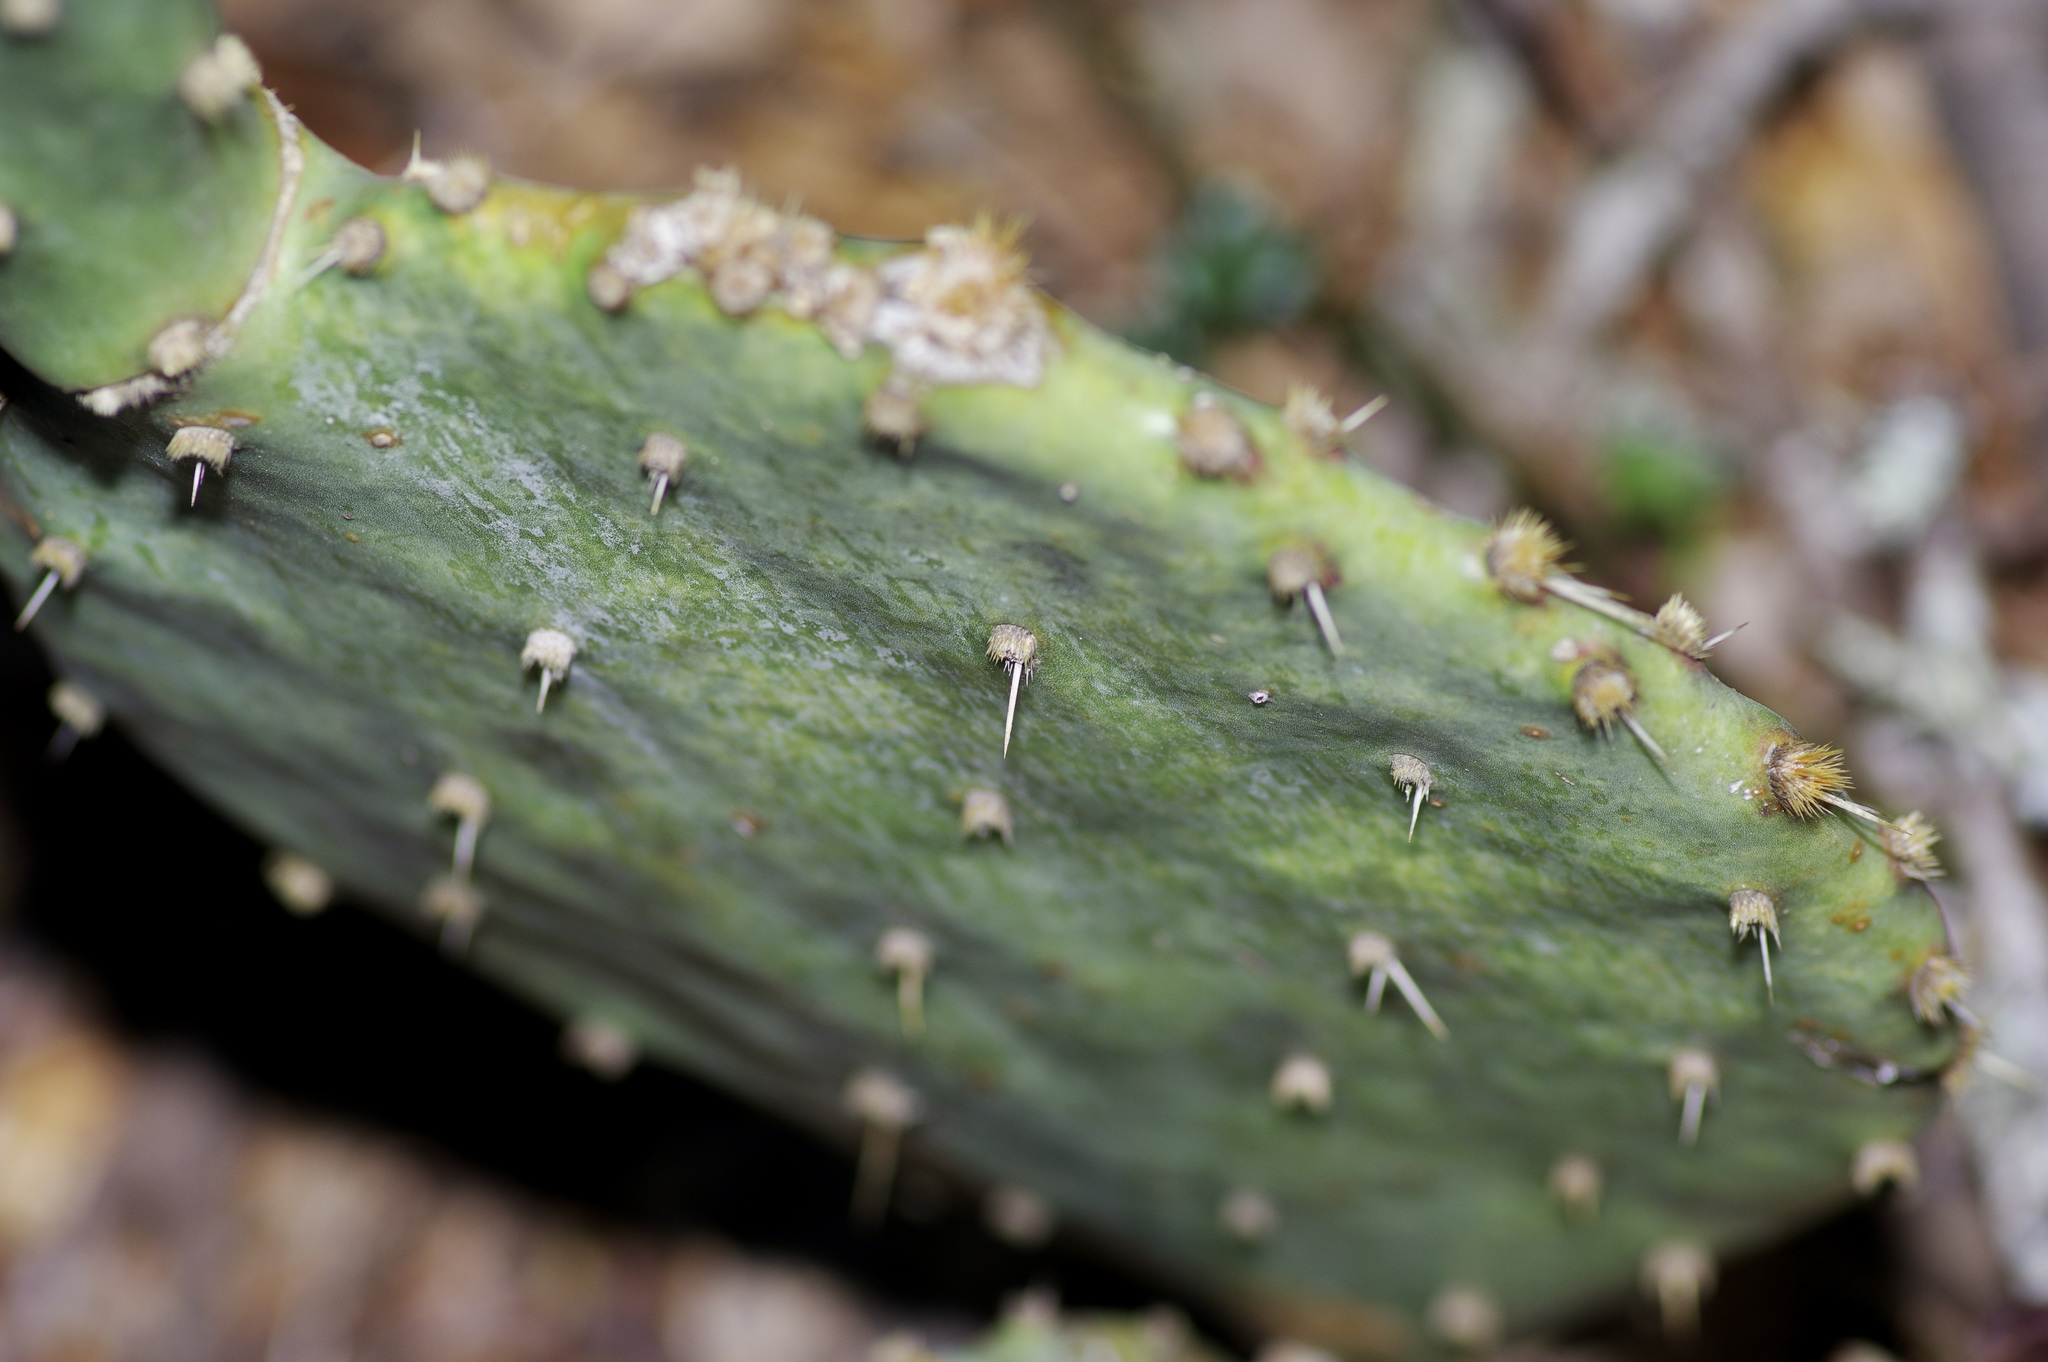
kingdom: Plantae
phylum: Tracheophyta
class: Magnoliopsida
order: Caryophyllales
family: Cactaceae
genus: Opuntia
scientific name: Opuntia orbiculata
